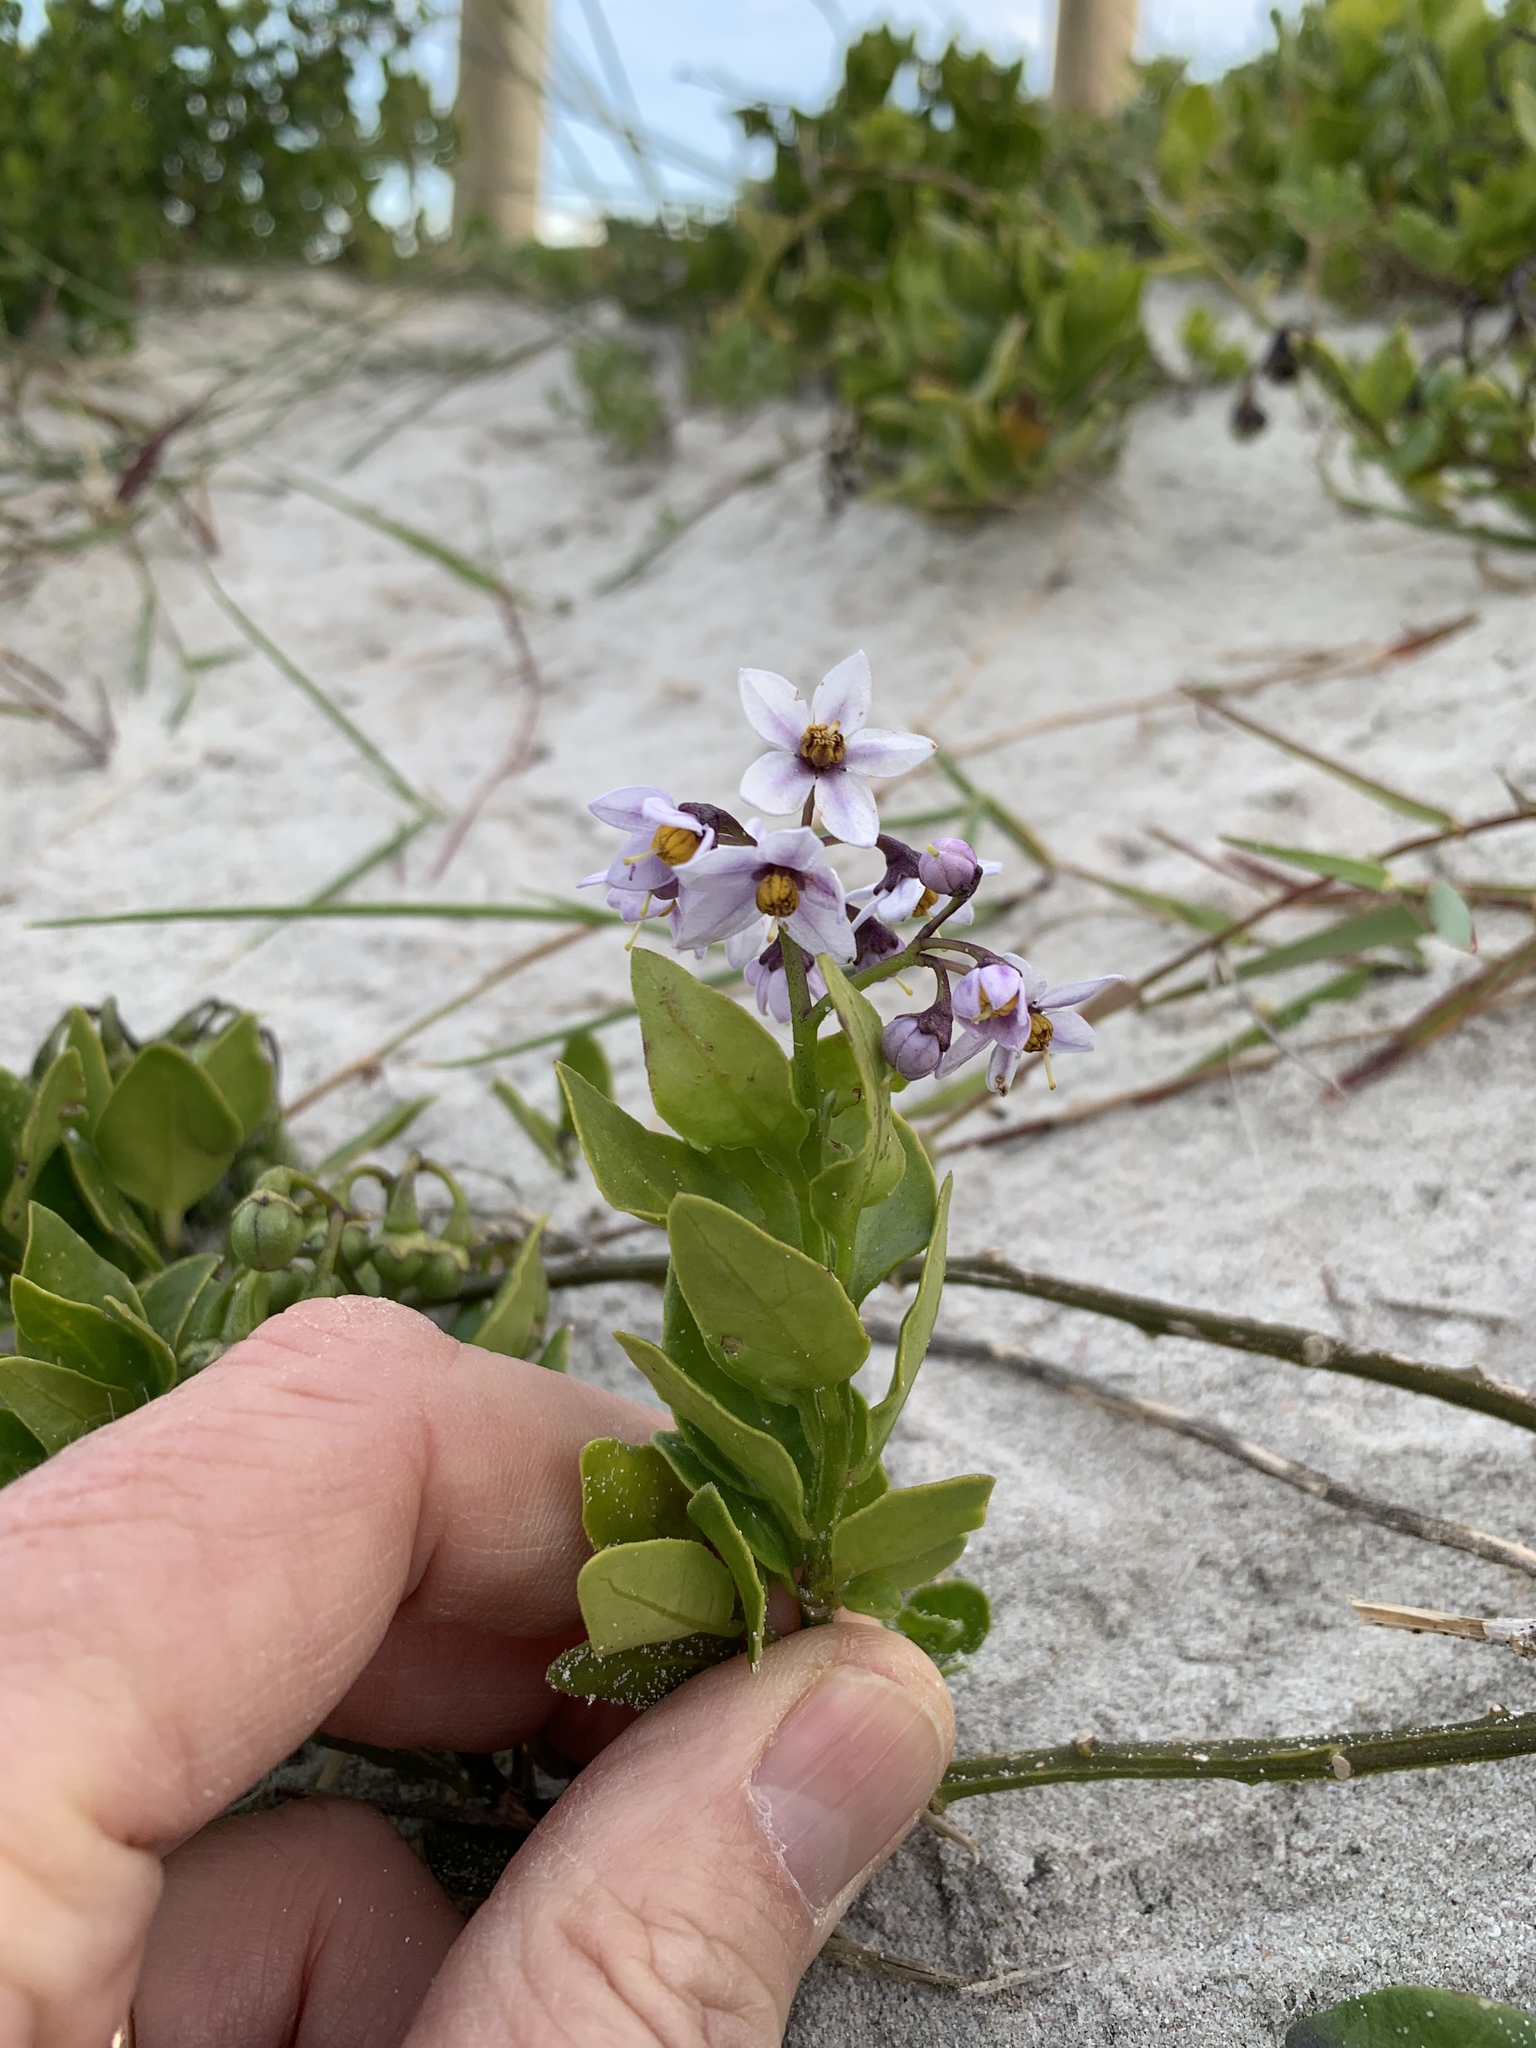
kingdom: Plantae
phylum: Tracheophyta
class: Magnoliopsida
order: Solanales
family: Solanaceae
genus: Solanum
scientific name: Solanum africanum
